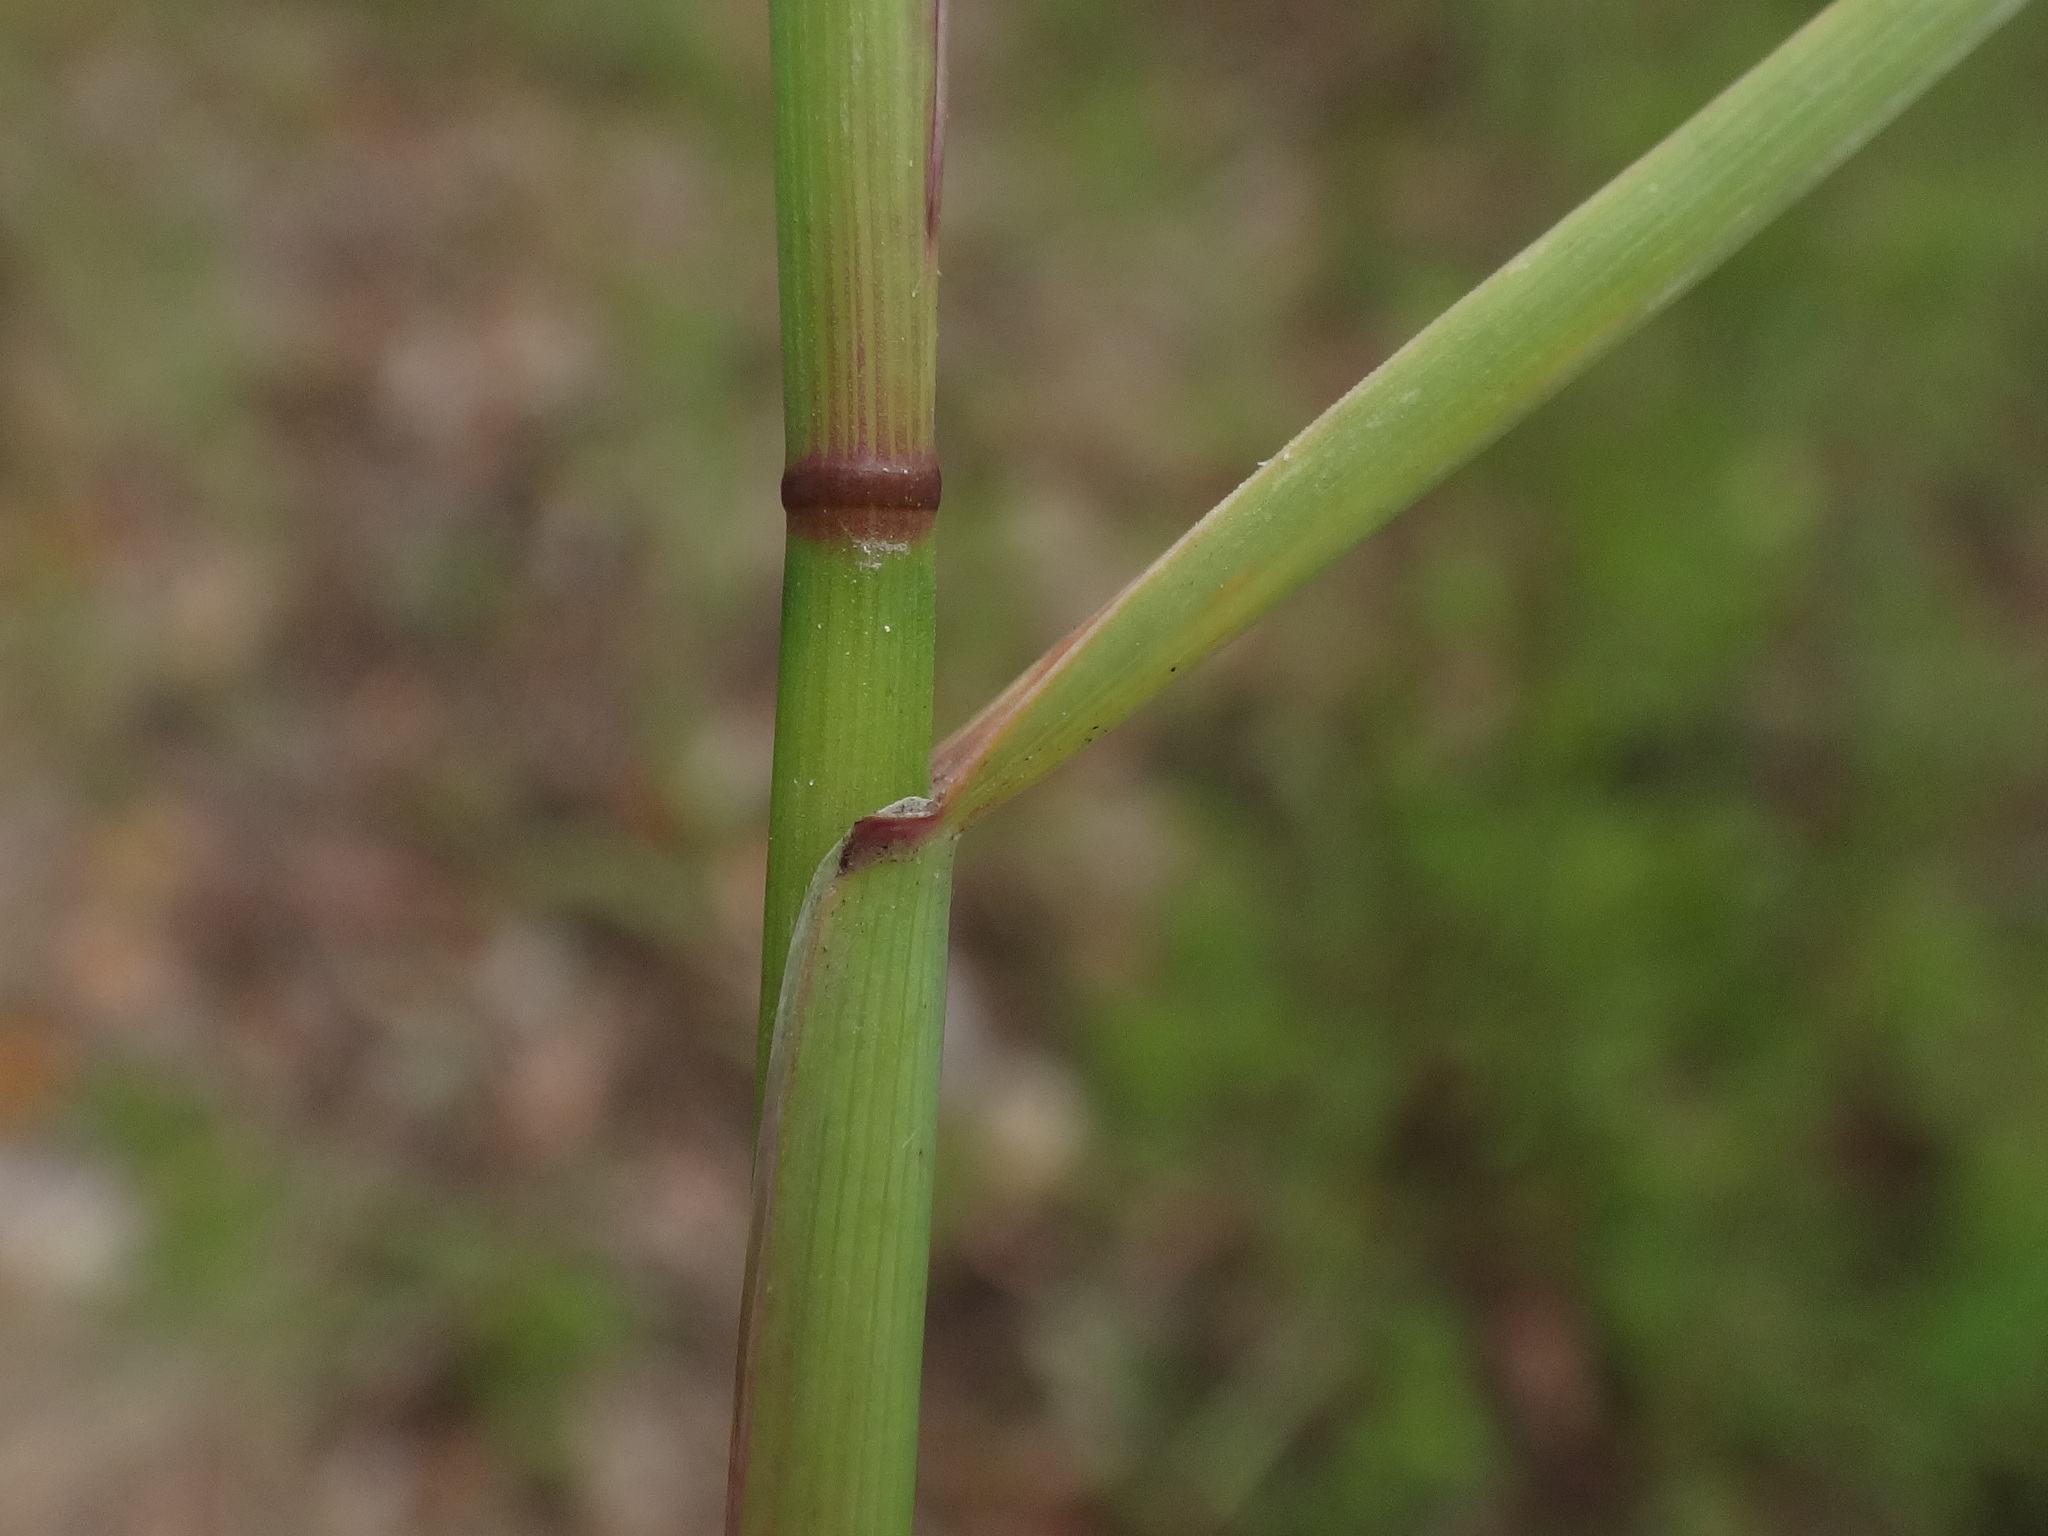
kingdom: Plantae
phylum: Tracheophyta
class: Liliopsida
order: Poales
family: Poaceae
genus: Poa
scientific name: Poa compressa
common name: Canada bluegrass
